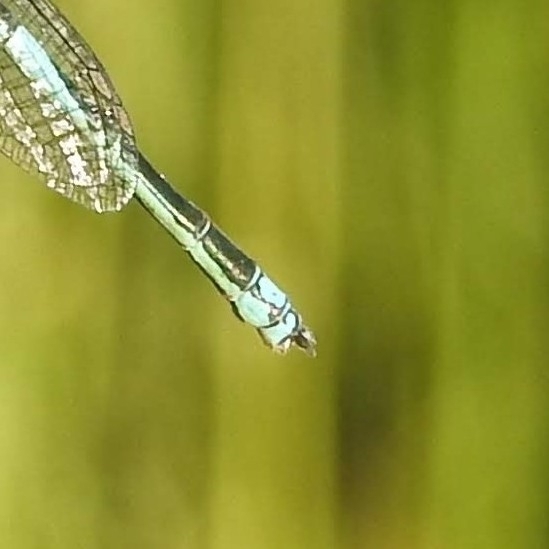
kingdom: Animalia
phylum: Arthropoda
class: Insecta
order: Odonata
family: Coenagrionidae
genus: Erythromma
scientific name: Erythromma lindenii
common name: Blue-eye
